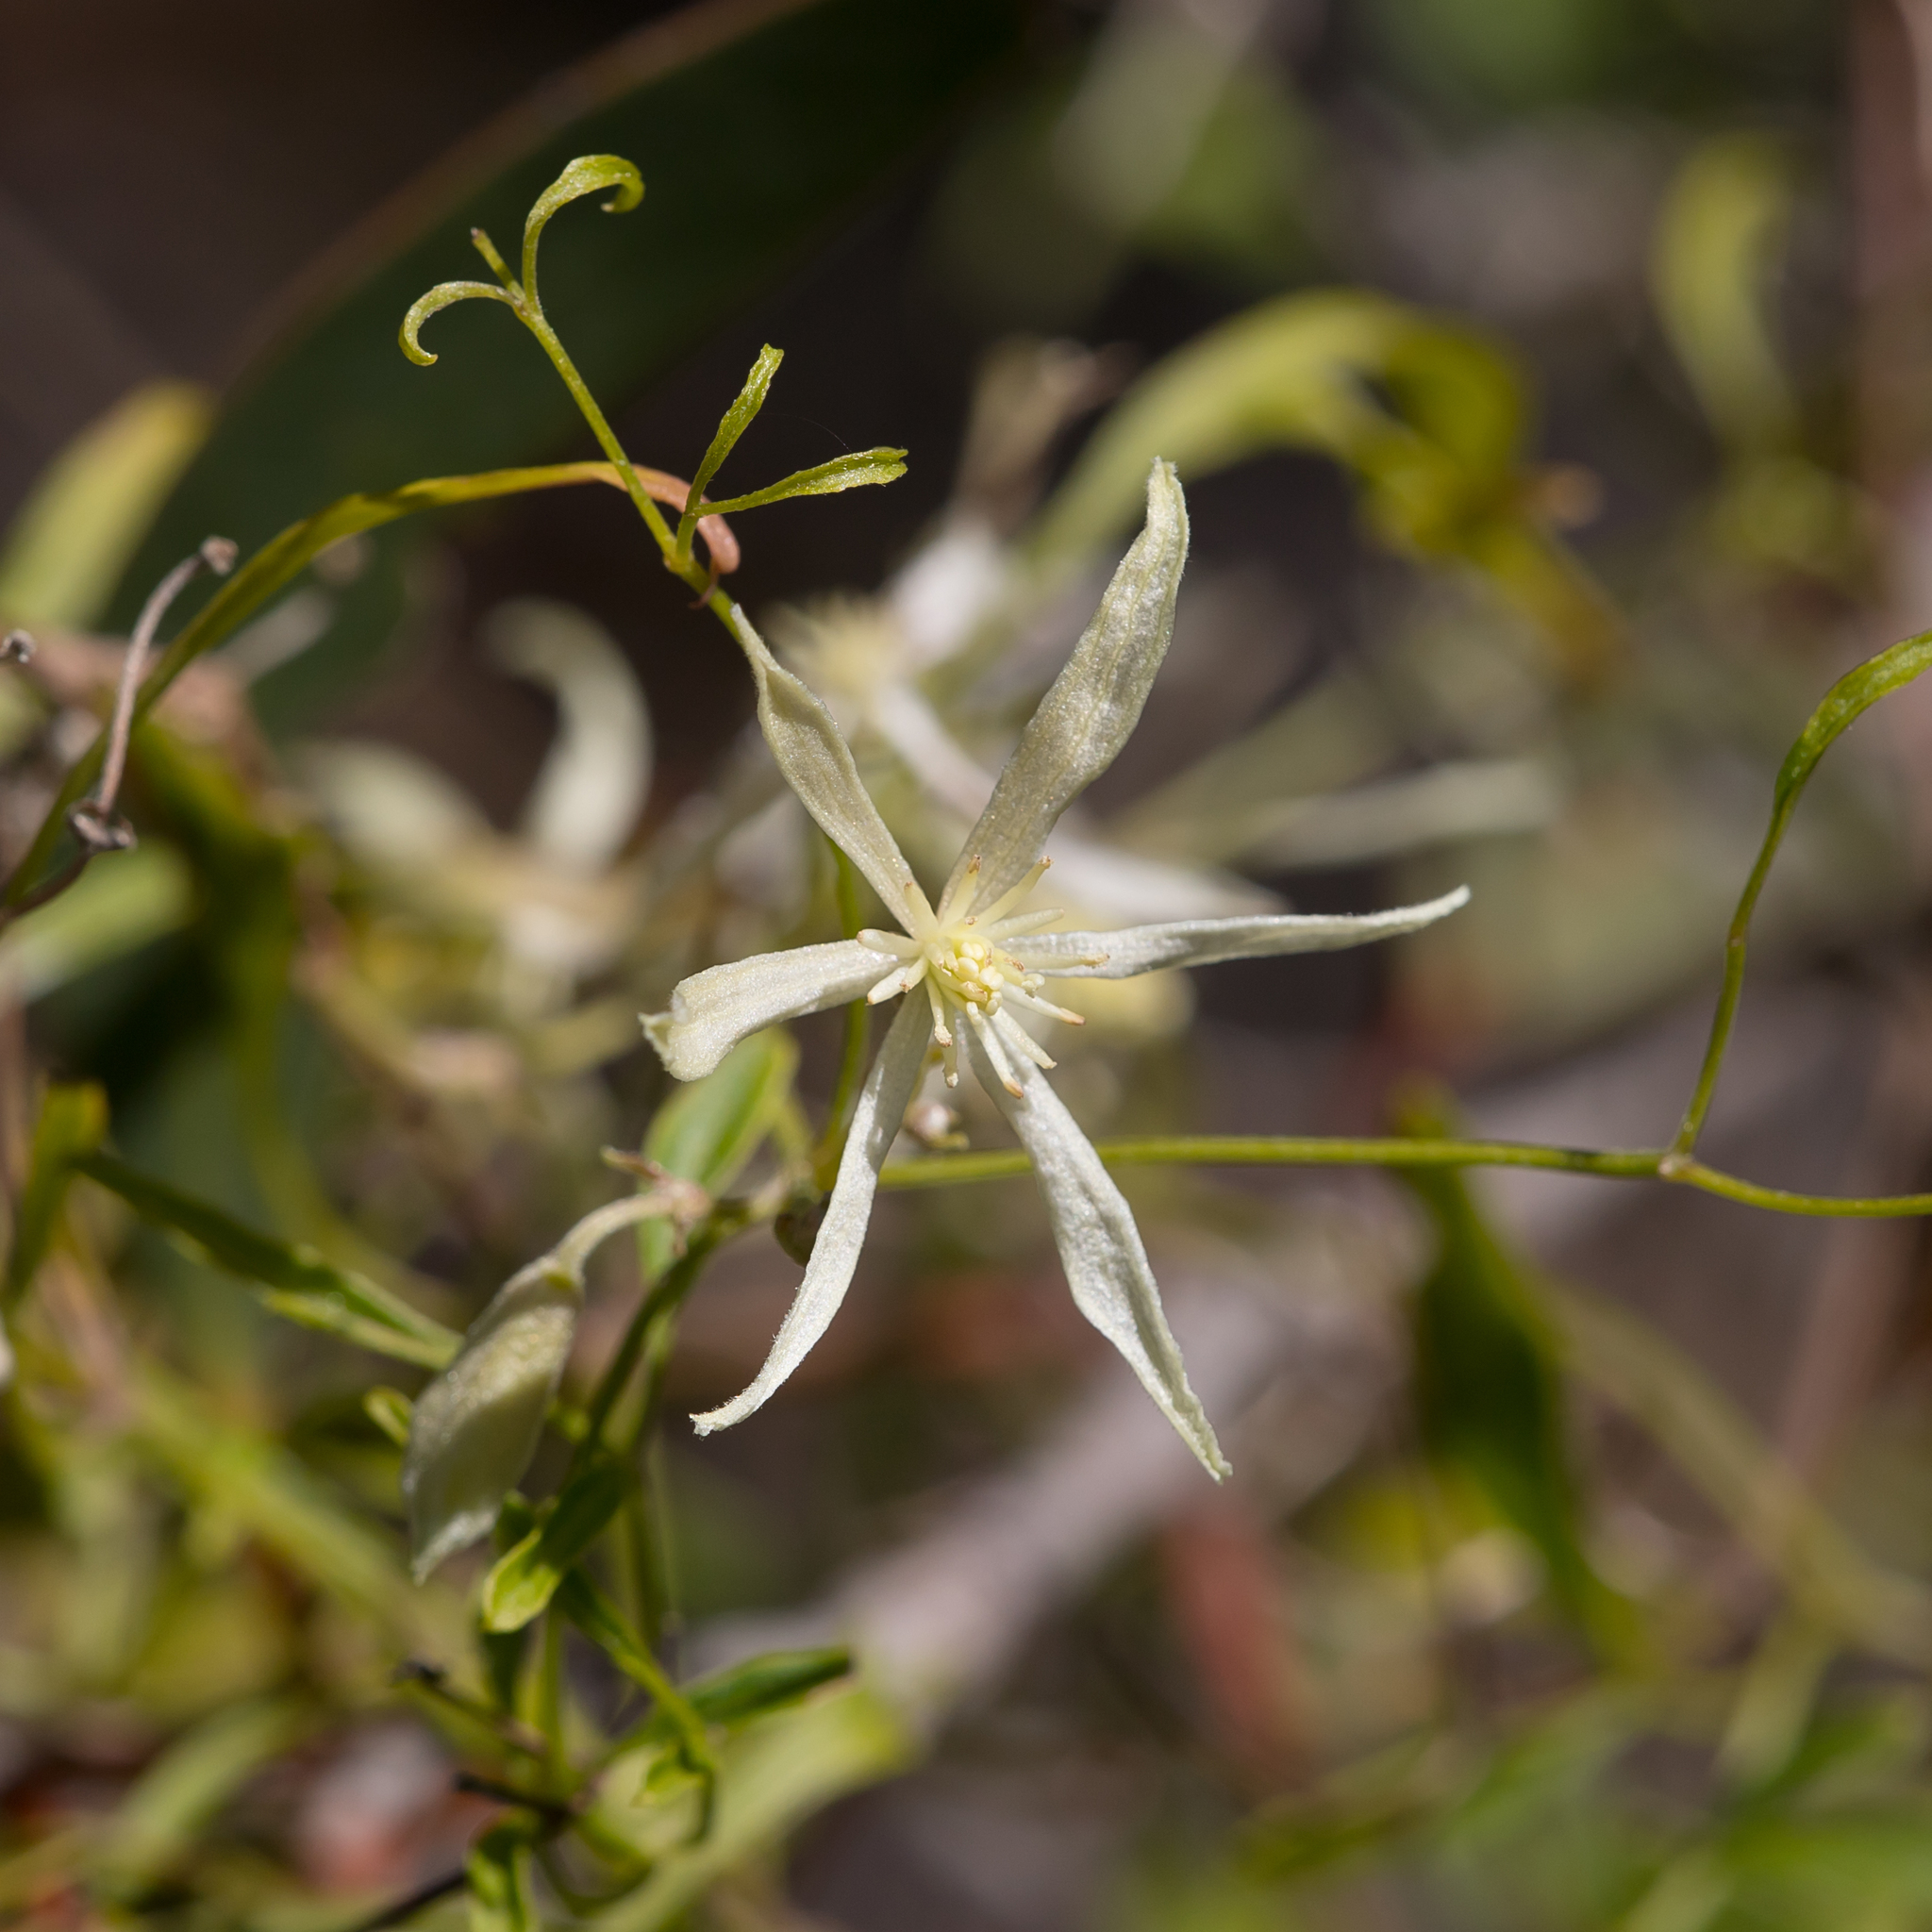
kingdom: Plantae
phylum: Tracheophyta
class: Magnoliopsida
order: Ranunculales
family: Ranunculaceae
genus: Clematis
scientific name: Clematis microphylla
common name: Headachevine
